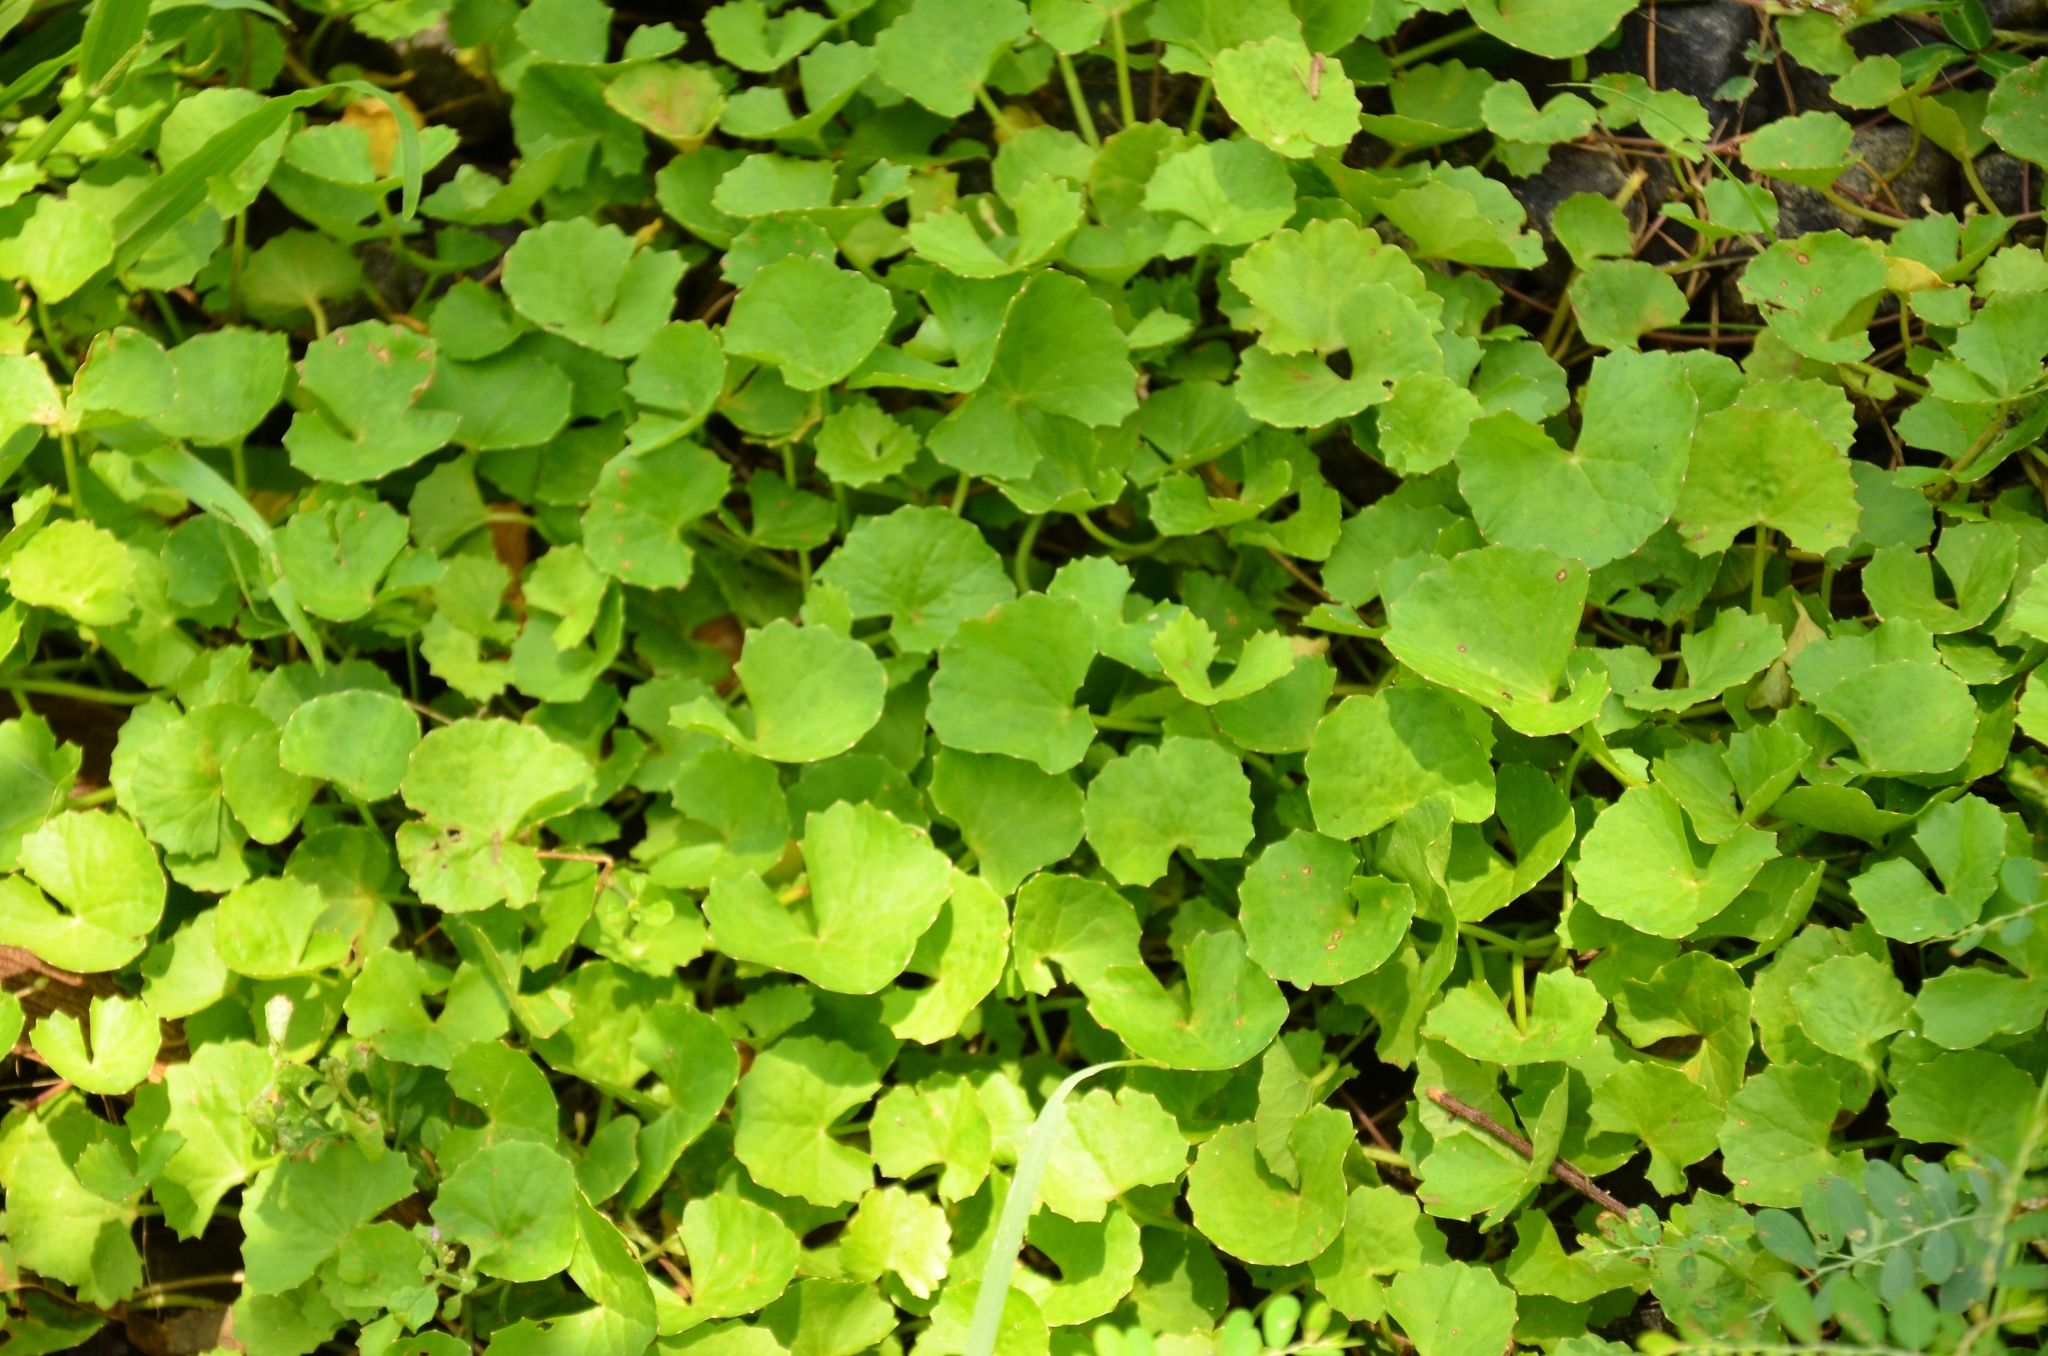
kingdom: Plantae
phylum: Tracheophyta
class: Magnoliopsida
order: Apiales
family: Apiaceae
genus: Centella
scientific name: Centella asiatica
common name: Spadeleaf
